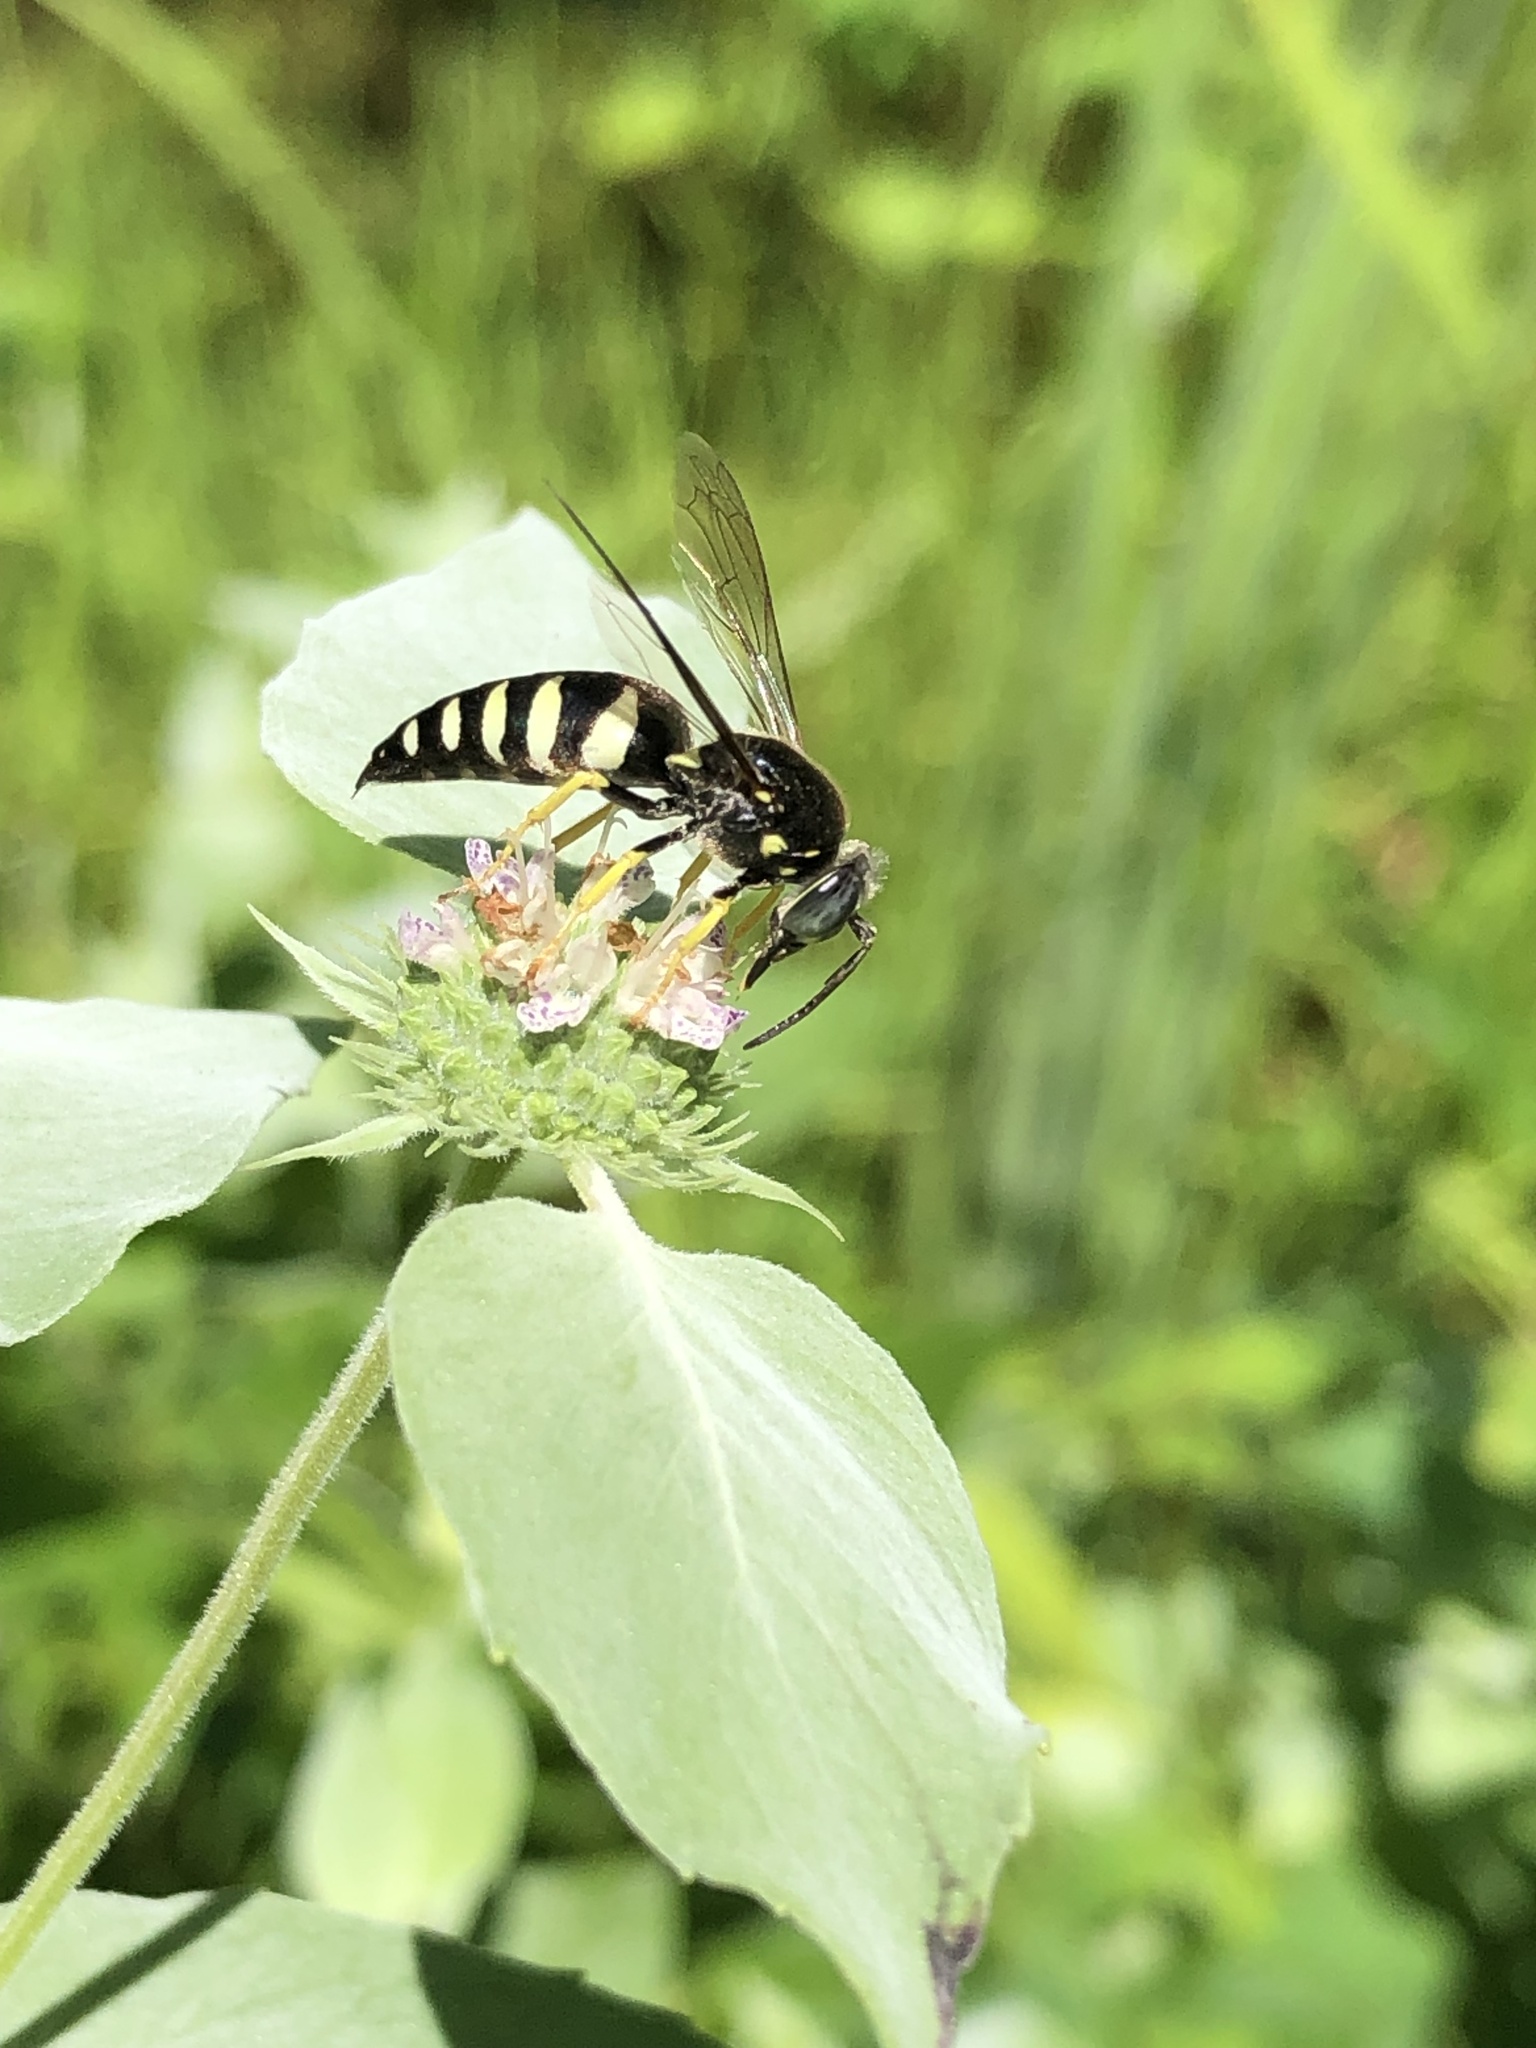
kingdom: Animalia
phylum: Arthropoda
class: Insecta
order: Hymenoptera
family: Crabronidae
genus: Bicyrtes
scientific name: Bicyrtes quadrifasciatus
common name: Four-banded stink bug hunter wasp
